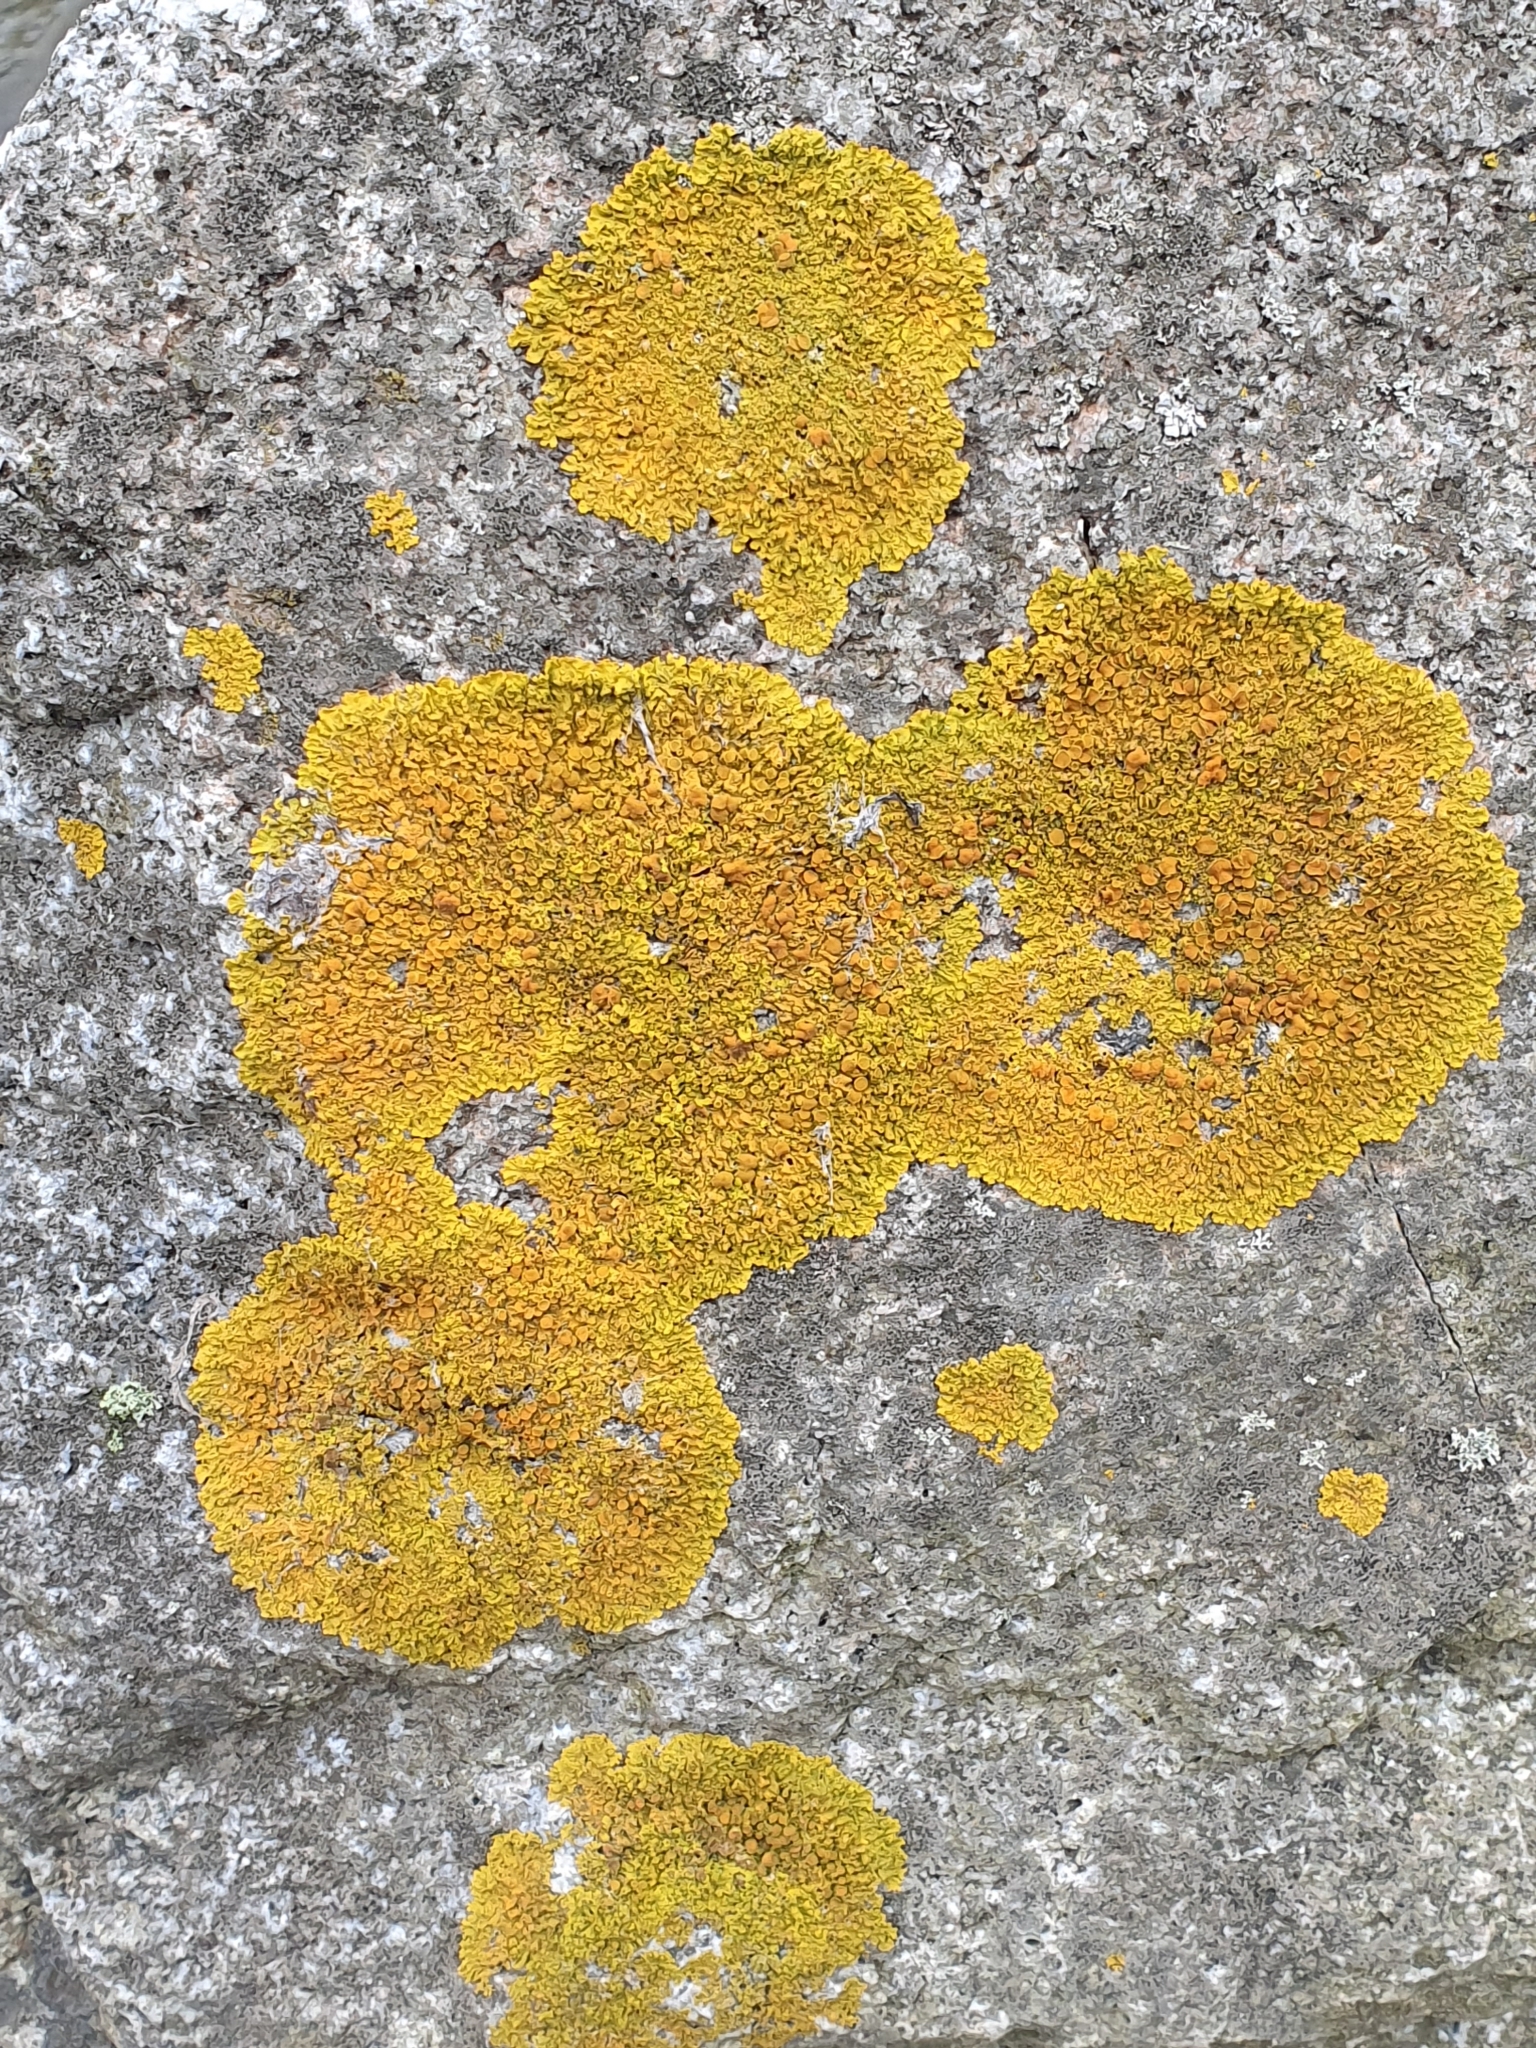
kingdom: Fungi
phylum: Ascomycota
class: Lecanoromycetes
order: Teloschistales
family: Teloschistaceae
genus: Xanthoria
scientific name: Xanthoria parietina
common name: Common orange lichen
